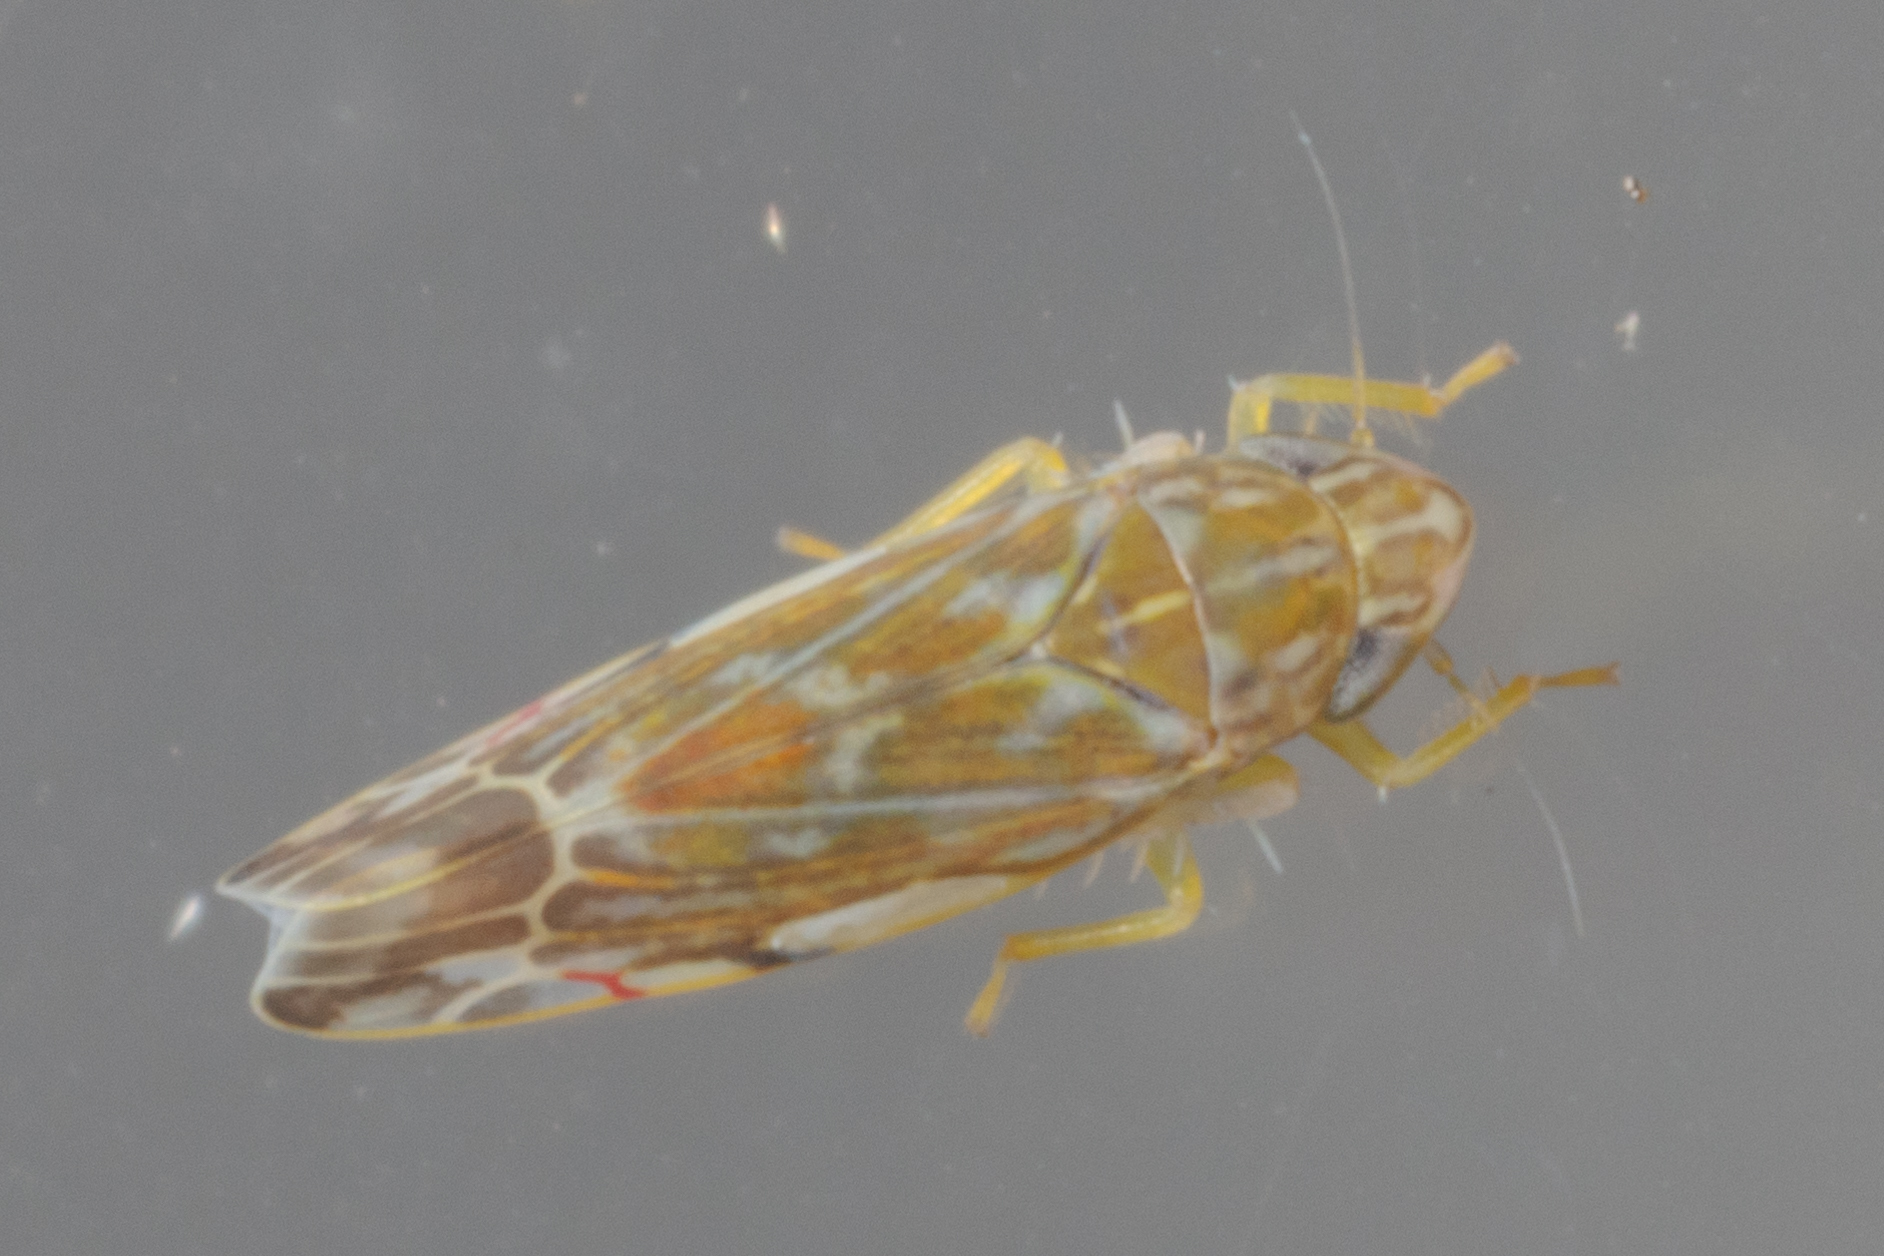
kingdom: Animalia
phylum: Arthropoda
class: Insecta
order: Hemiptera
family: Cicadellidae
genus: Erasmoneura
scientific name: Erasmoneura vulnerata
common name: The wounded leafhopper
